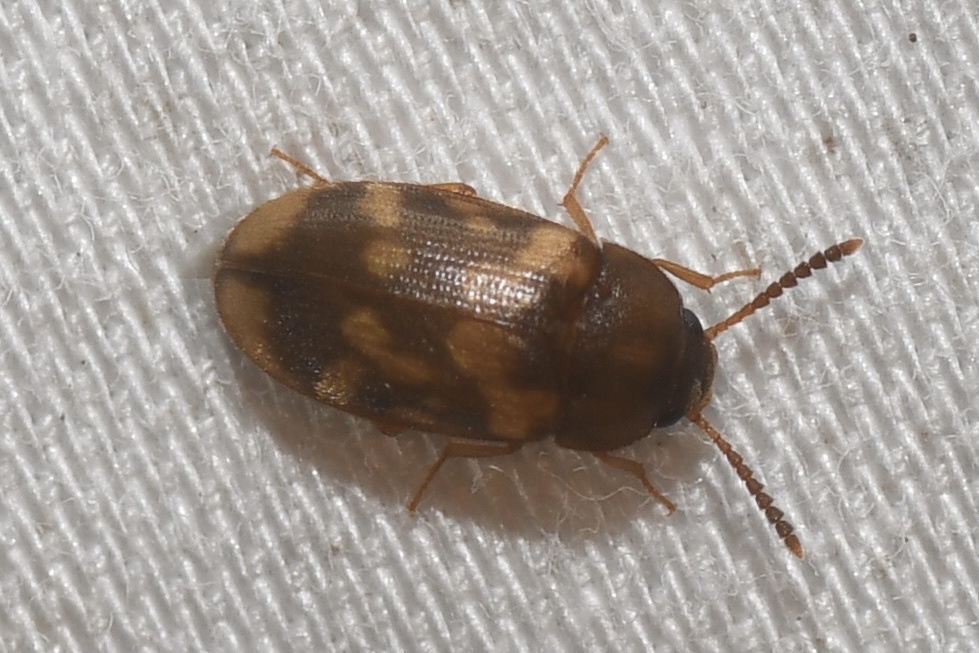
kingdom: Animalia
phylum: Arthropoda
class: Insecta
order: Coleoptera
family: Mycetophagidae
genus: Mycetophagus
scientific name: Mycetophagus serrulatus
